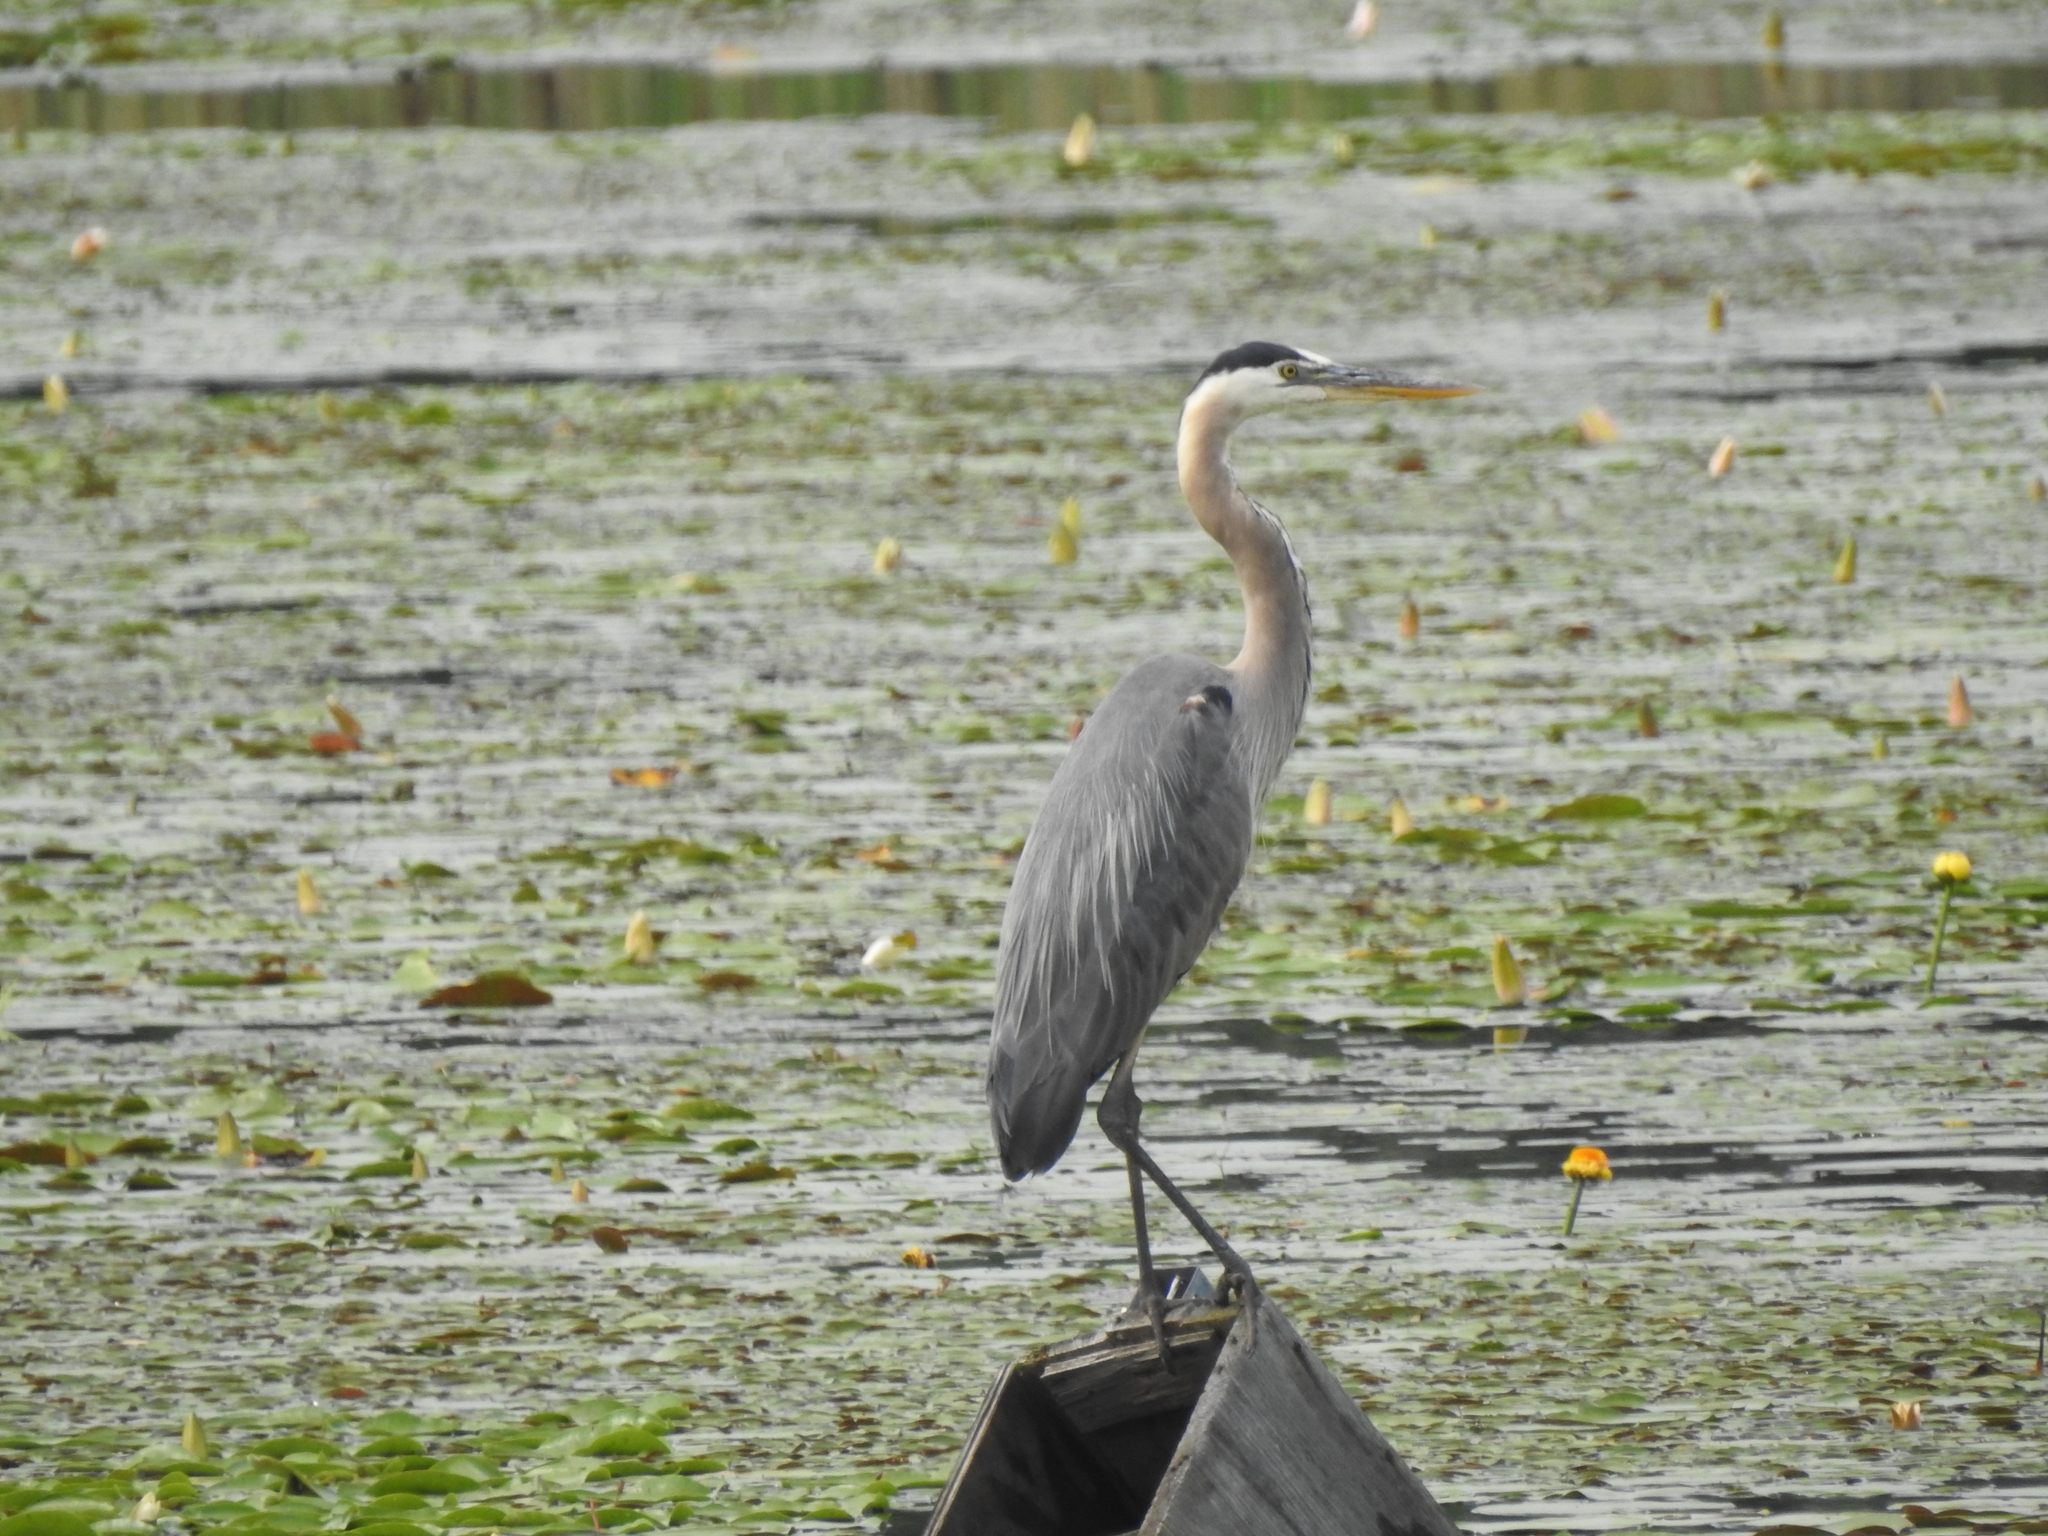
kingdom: Animalia
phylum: Chordata
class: Aves
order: Pelecaniformes
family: Ardeidae
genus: Ardea
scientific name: Ardea herodias
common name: Great blue heron
